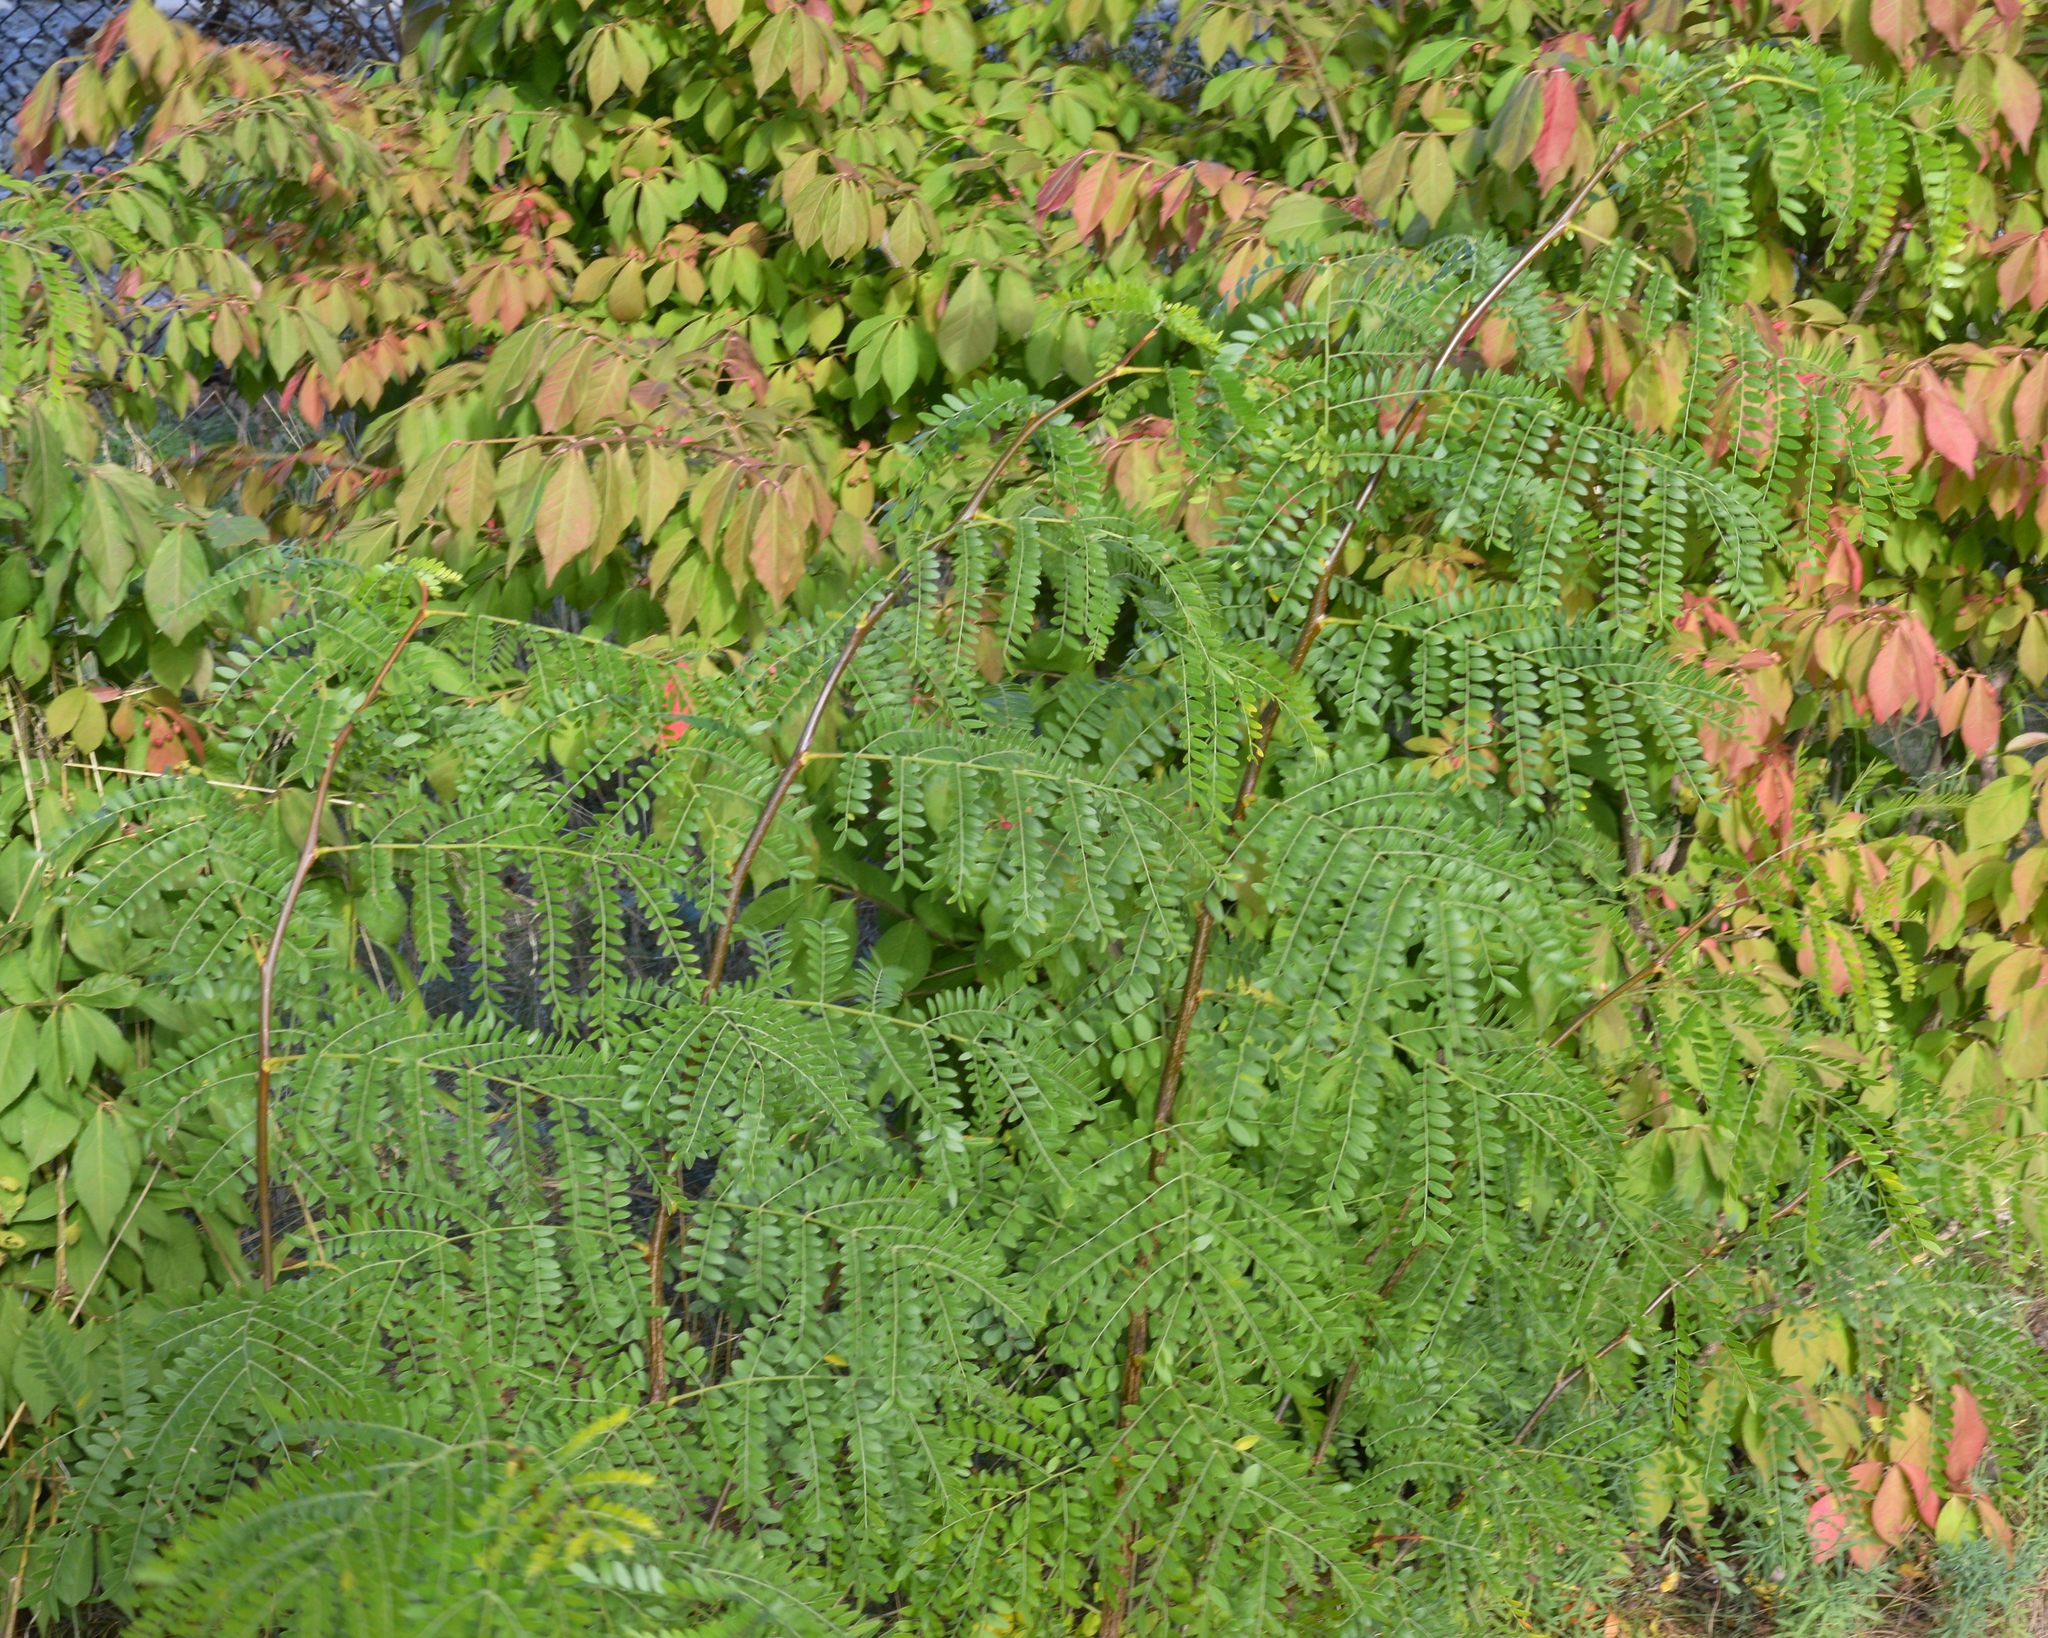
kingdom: Plantae
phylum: Tracheophyta
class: Magnoliopsida
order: Fabales
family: Fabaceae
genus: Gleditsia
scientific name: Gleditsia triacanthos
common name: Common honeylocust
